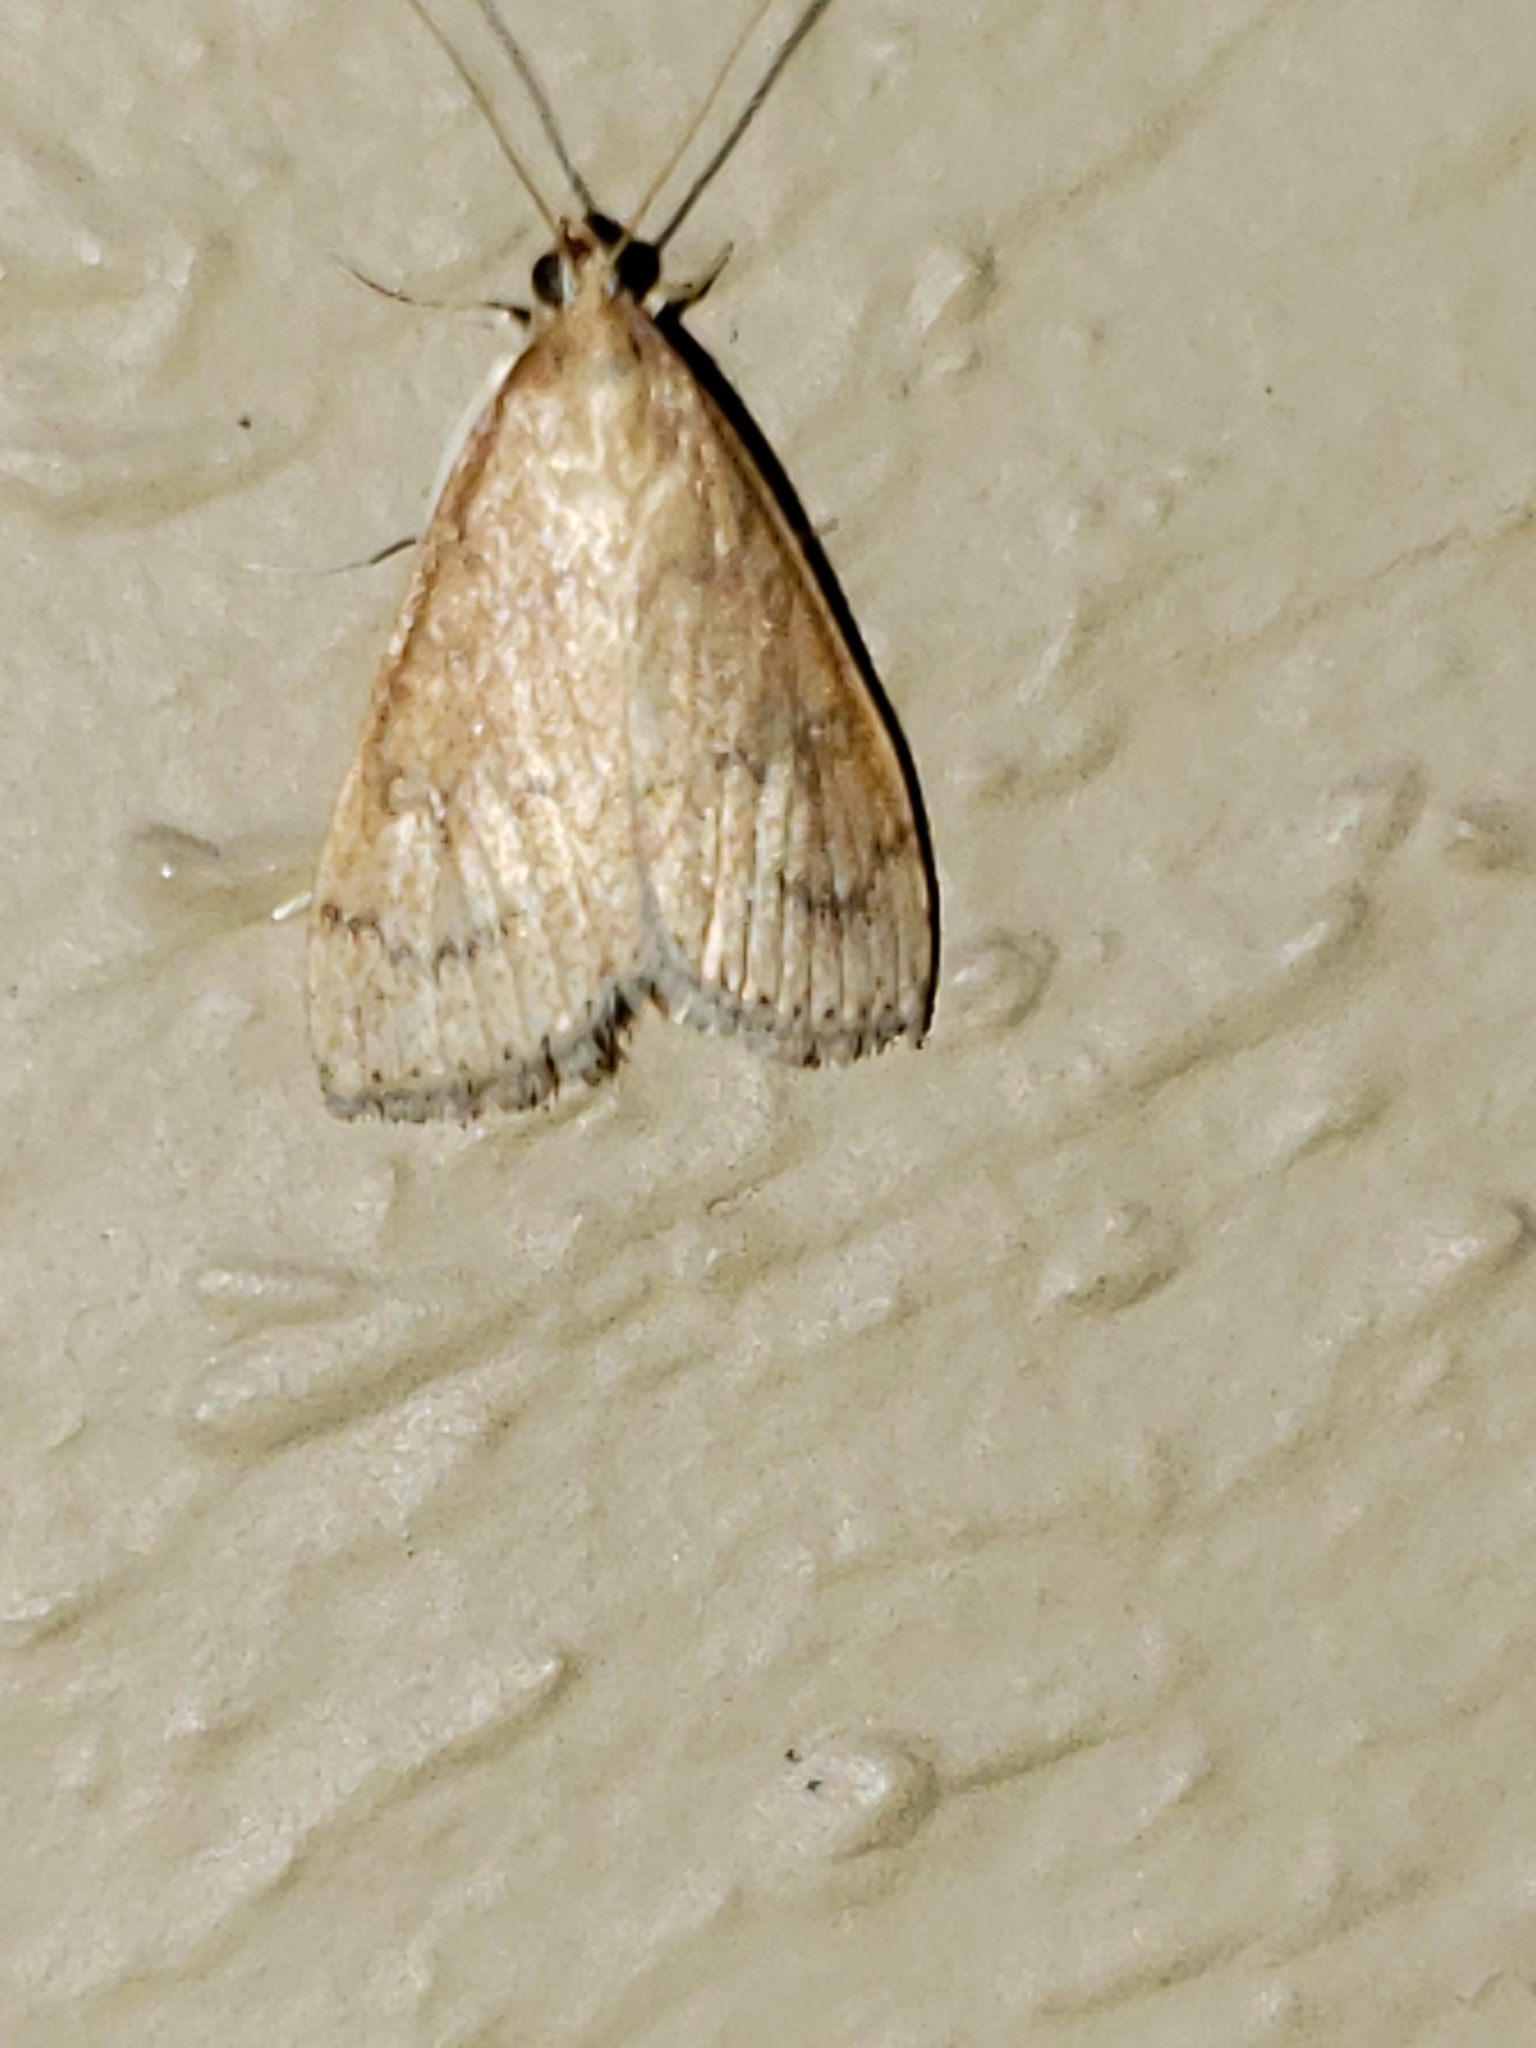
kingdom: Animalia
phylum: Arthropoda
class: Insecta
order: Lepidoptera
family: Crambidae
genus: Udea
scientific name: Udea rubigalis
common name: Celery leaftier moth
